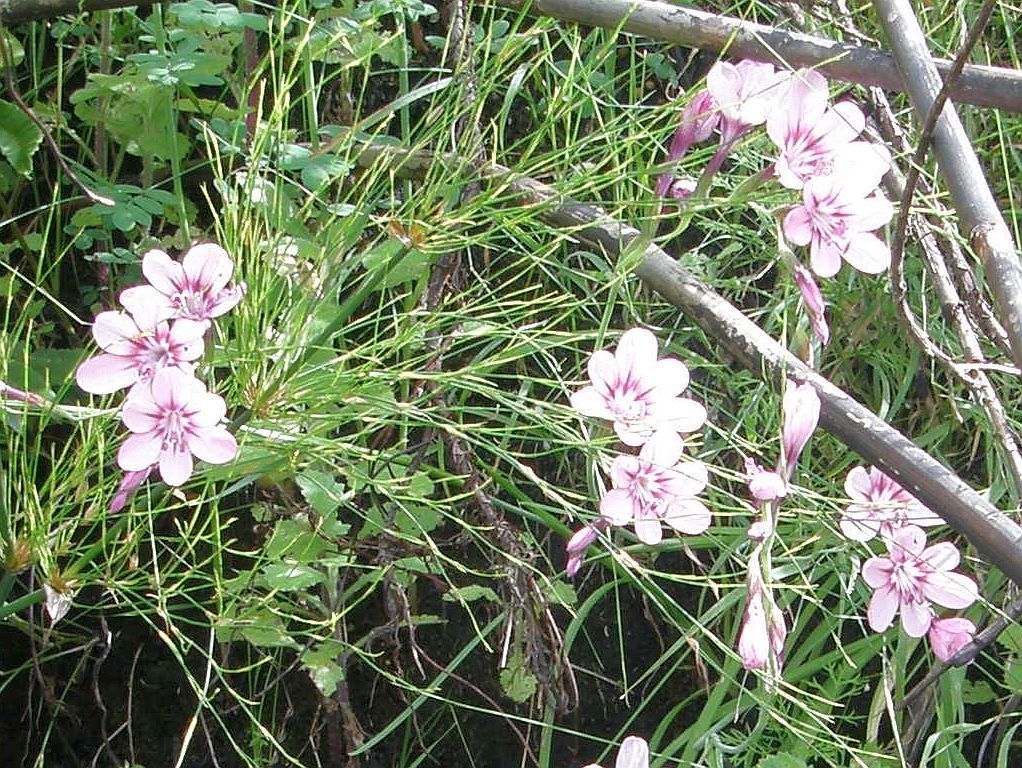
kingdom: Plantae
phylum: Tracheophyta
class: Liliopsida
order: Asparagales
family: Iridaceae
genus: Geissorhiza
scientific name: Geissorhiza callista
